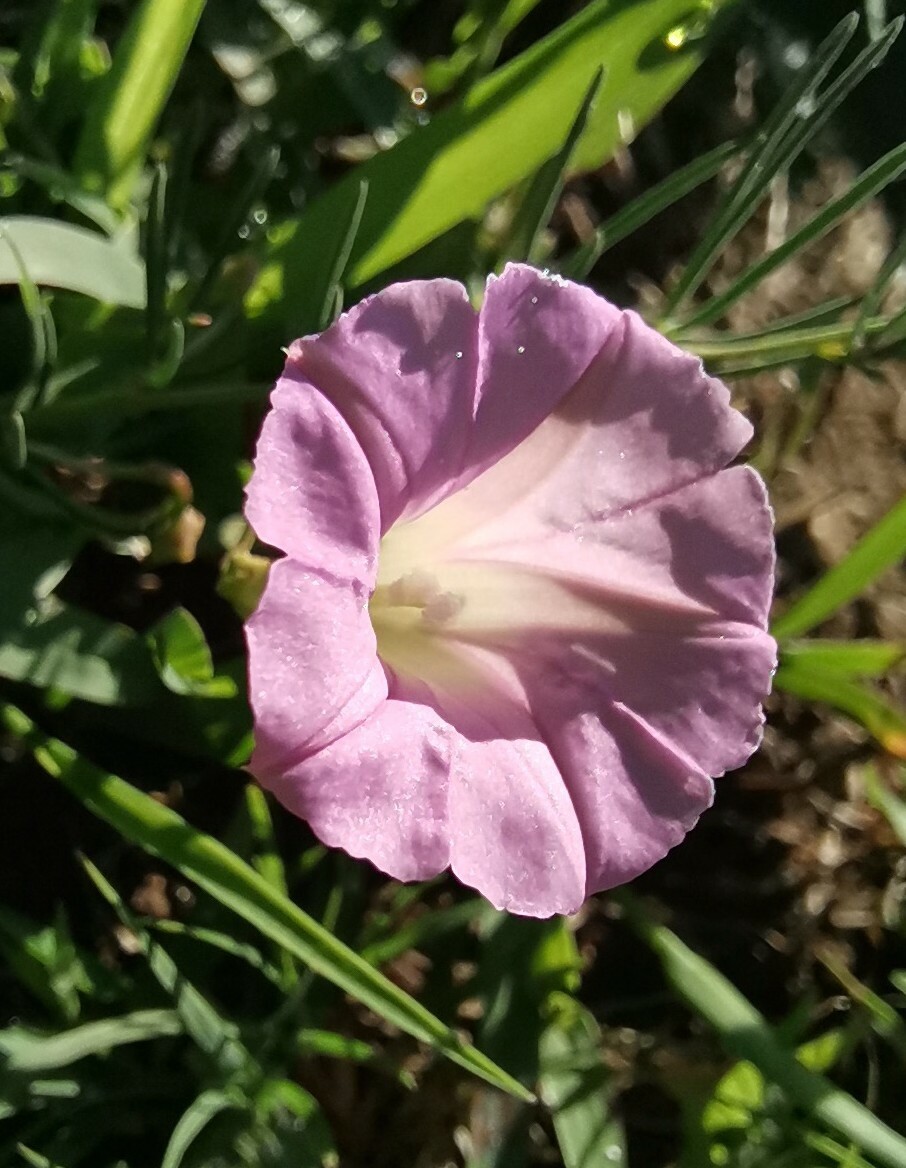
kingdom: Plantae
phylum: Tracheophyta
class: Magnoliopsida
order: Solanales
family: Convolvulaceae
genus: Ipomoea
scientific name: Ipomoea capillacea
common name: Purple morning-glory
